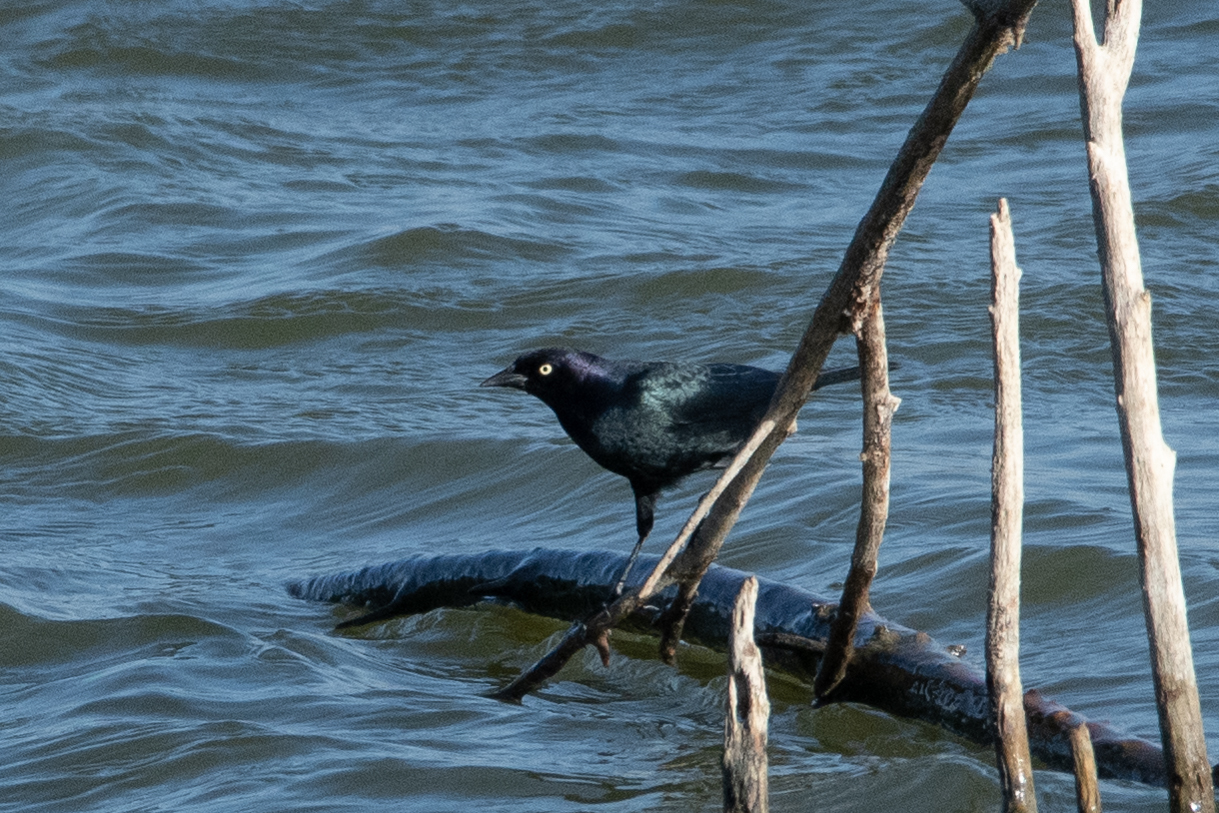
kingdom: Animalia
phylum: Chordata
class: Aves
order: Passeriformes
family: Icteridae
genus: Euphagus
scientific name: Euphagus cyanocephalus
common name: Brewer's blackbird
